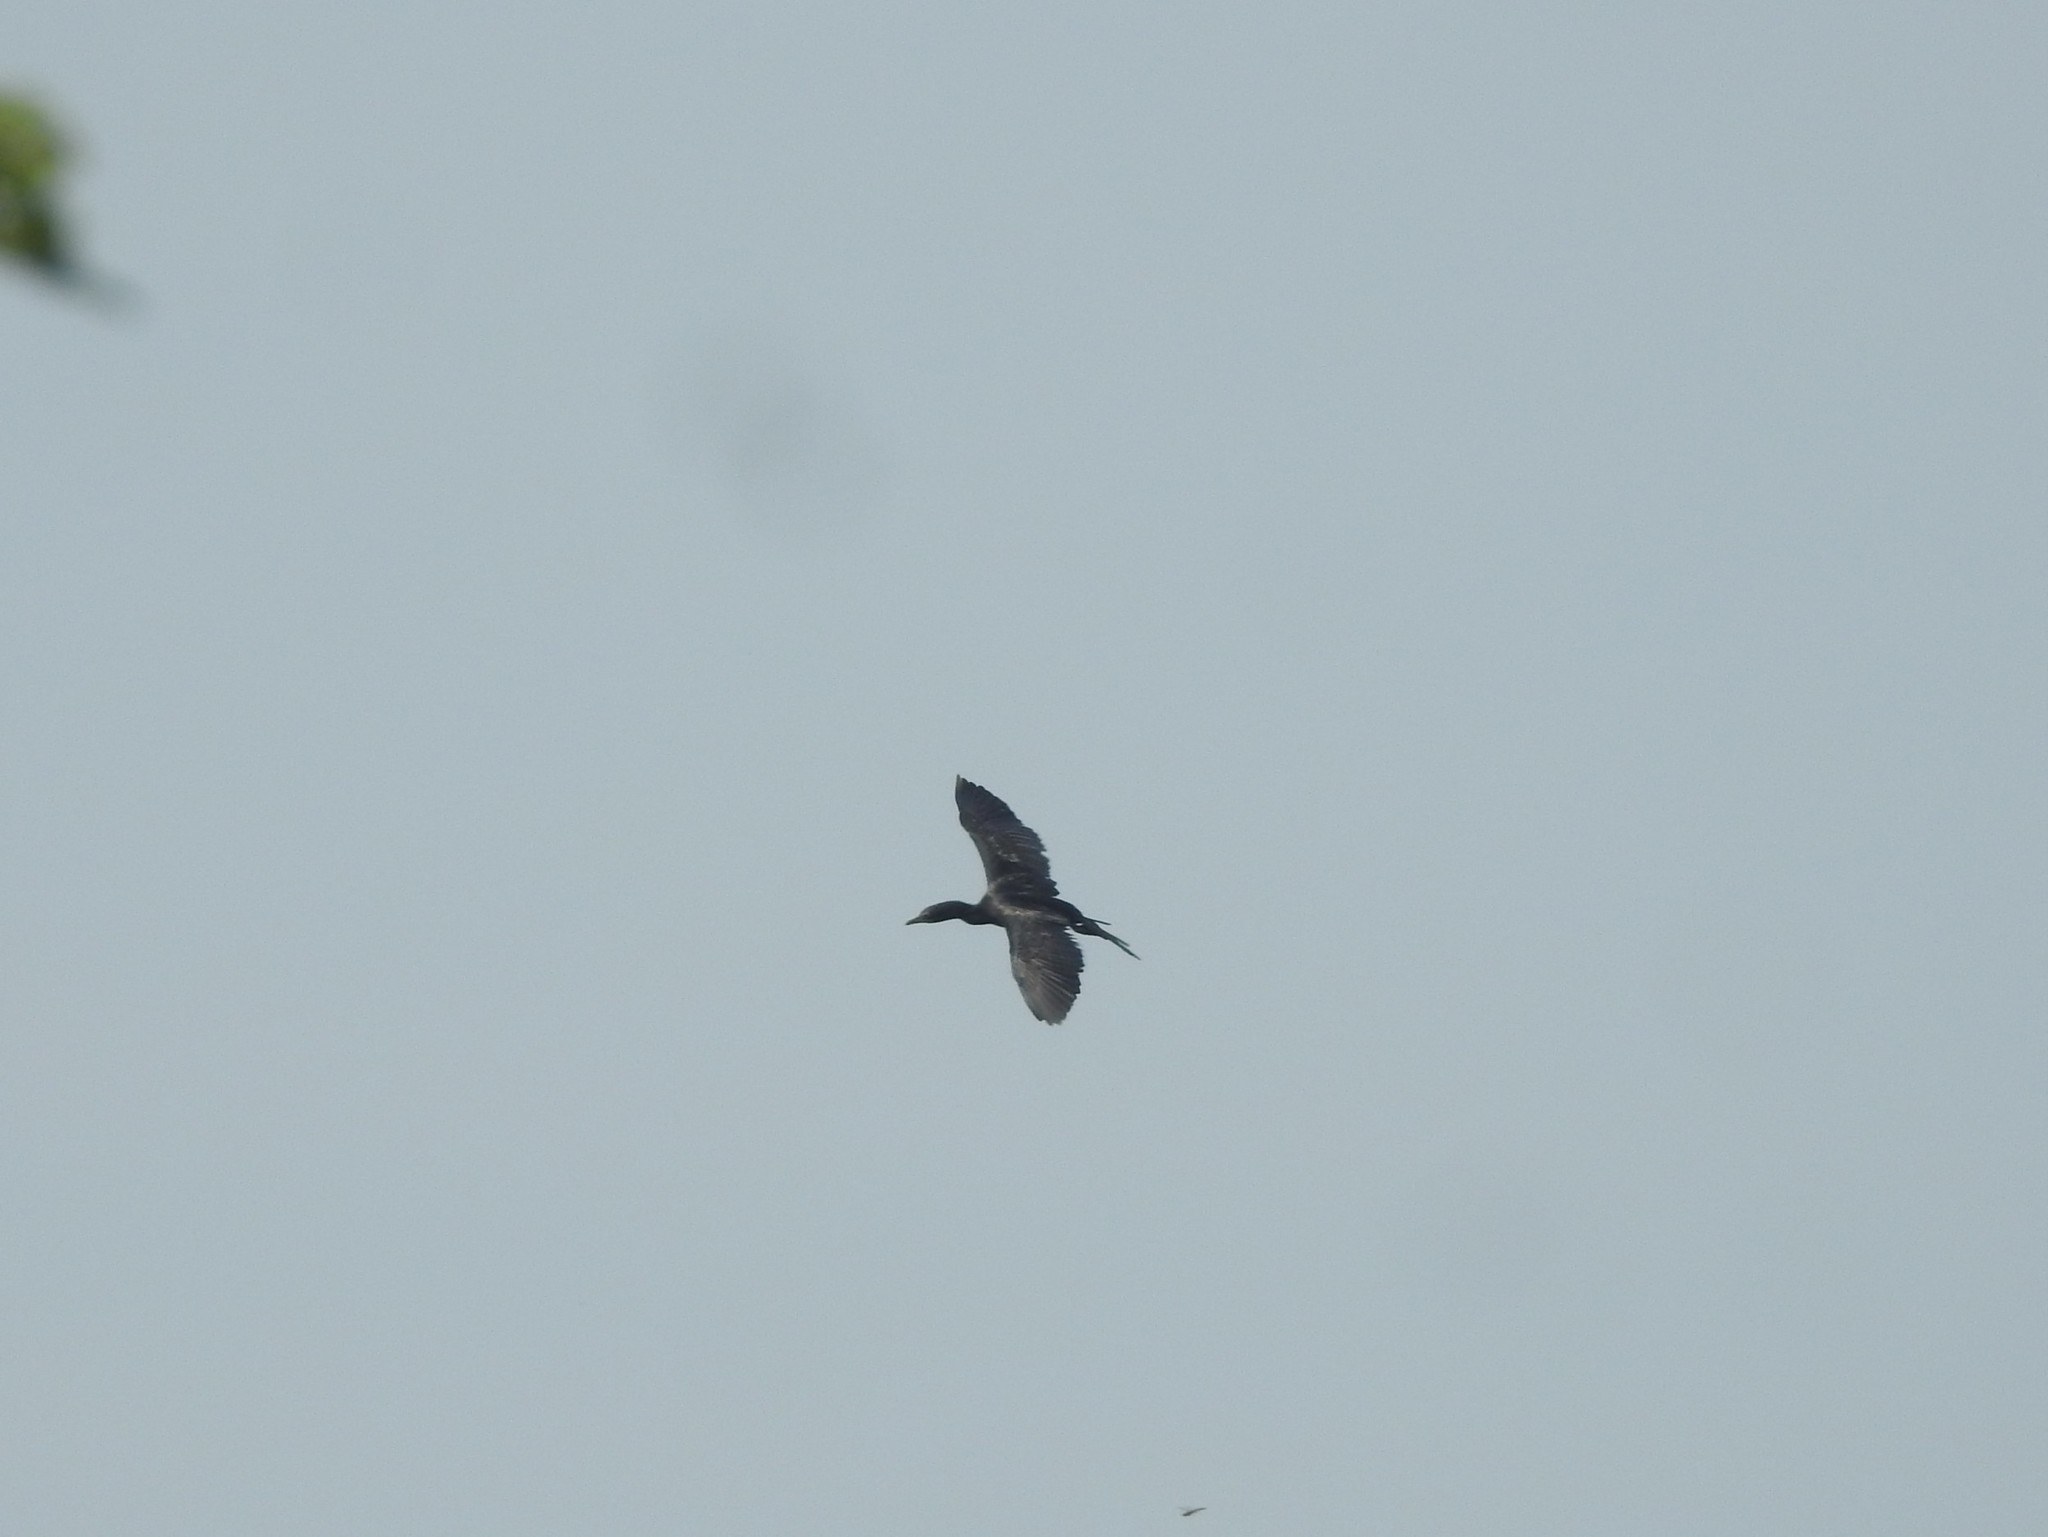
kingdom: Animalia
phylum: Chordata
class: Aves
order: Suliformes
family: Phalacrocoracidae
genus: Microcarbo
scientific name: Microcarbo niger
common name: Little cormorant
